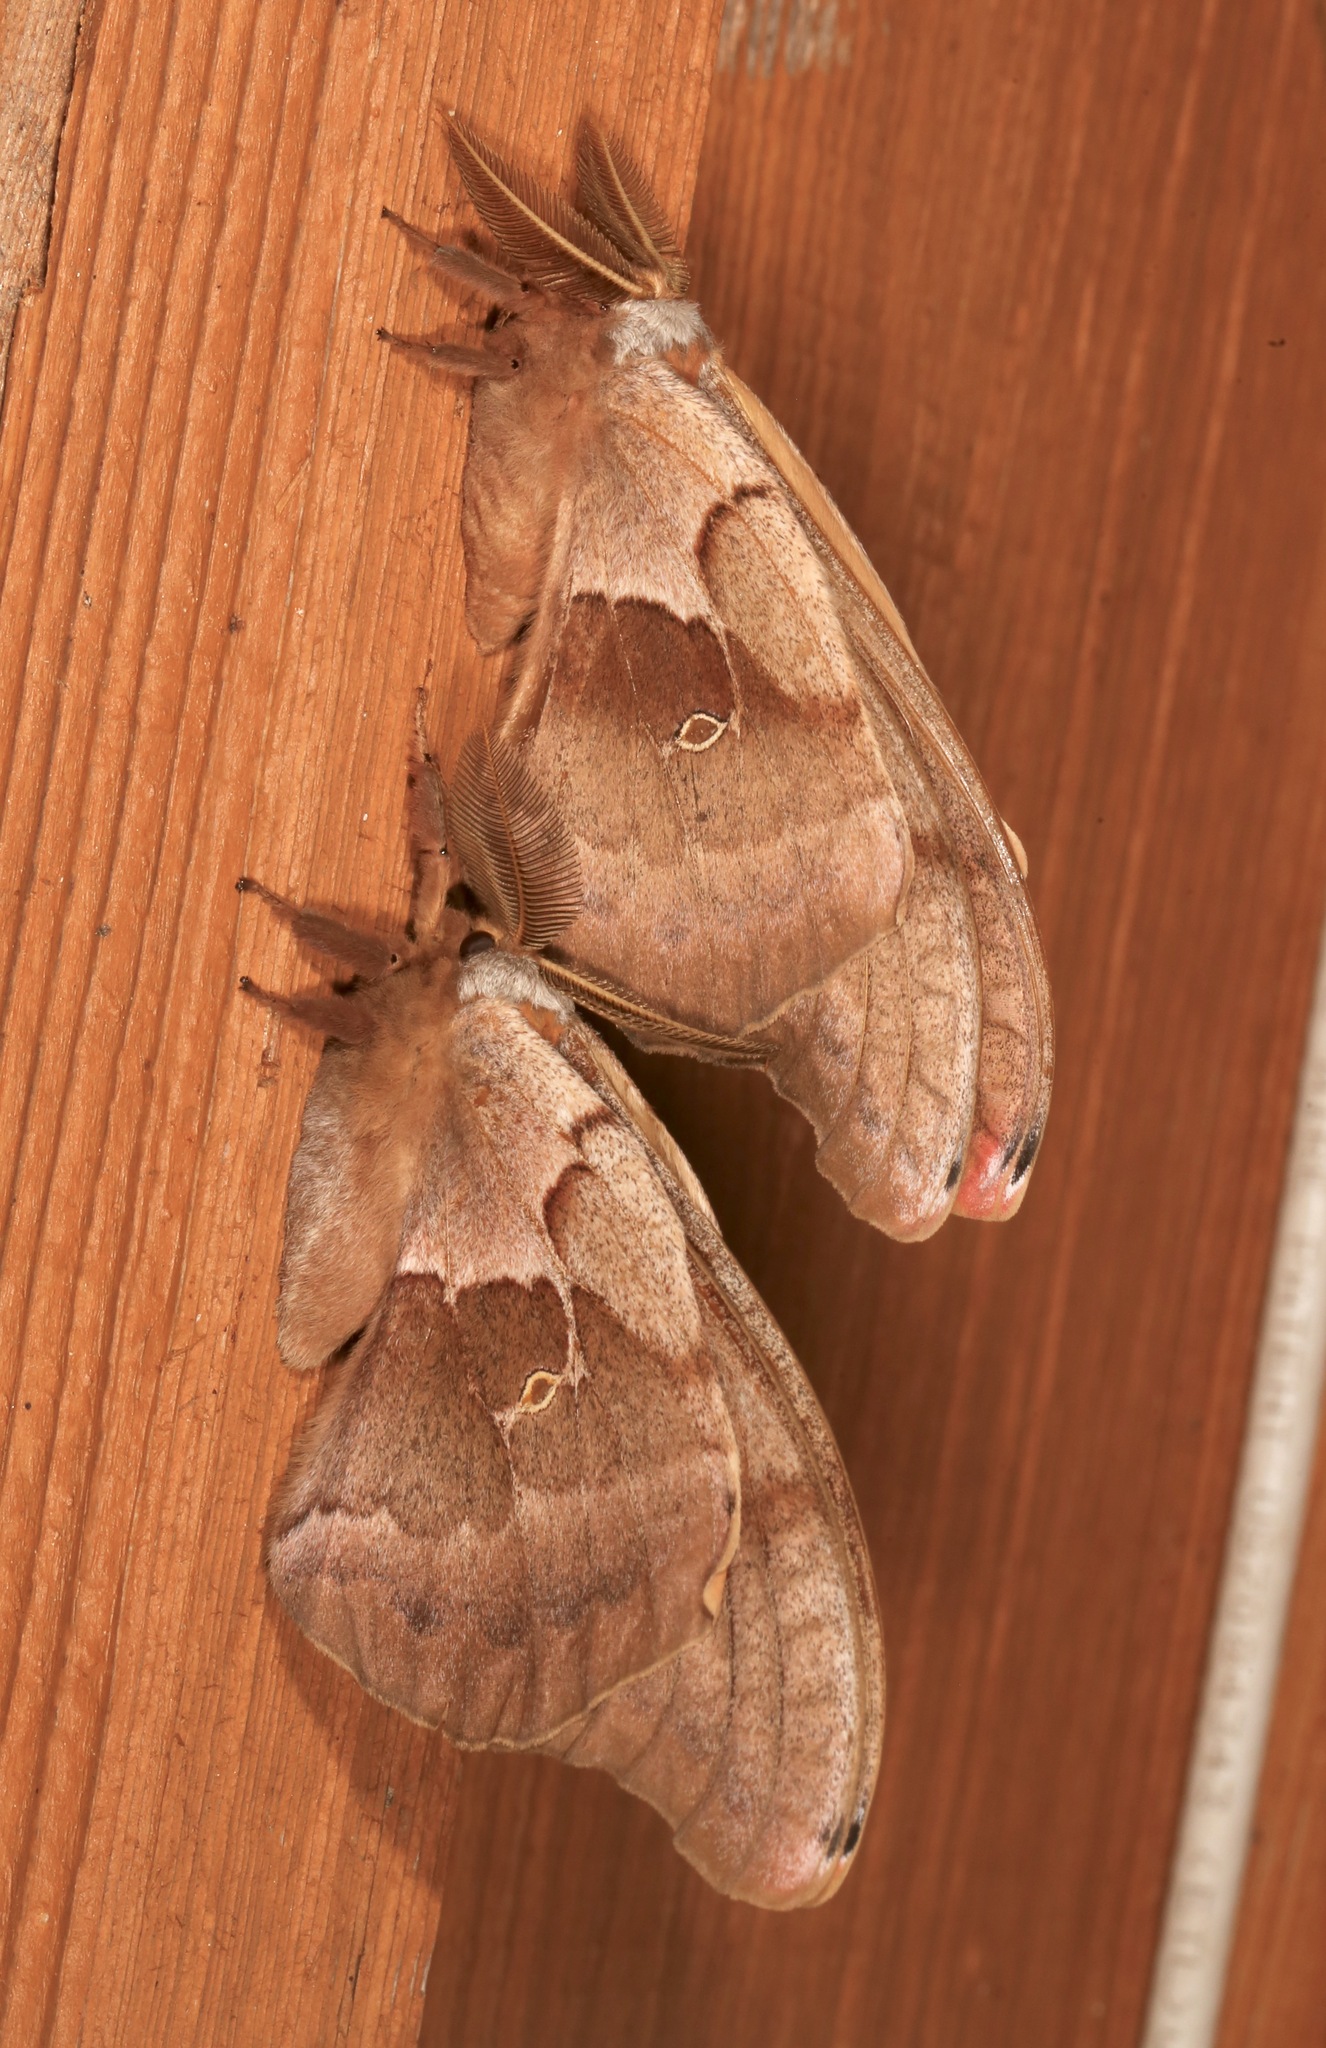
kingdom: Animalia
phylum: Arthropoda
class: Insecta
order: Lepidoptera
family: Saturniidae
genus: Antheraea
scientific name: Antheraea polyphemus
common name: Polyphemus moth
